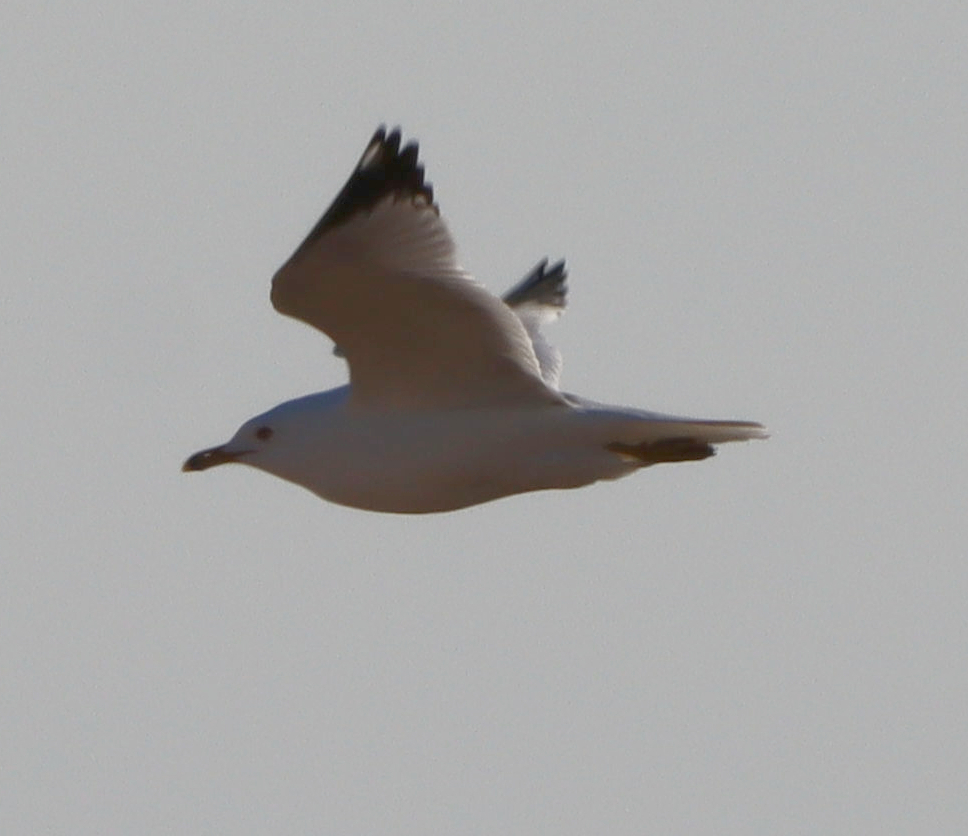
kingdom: Animalia
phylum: Chordata
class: Aves
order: Charadriiformes
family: Laridae
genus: Larus
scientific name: Larus delawarensis
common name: Ring-billed gull
